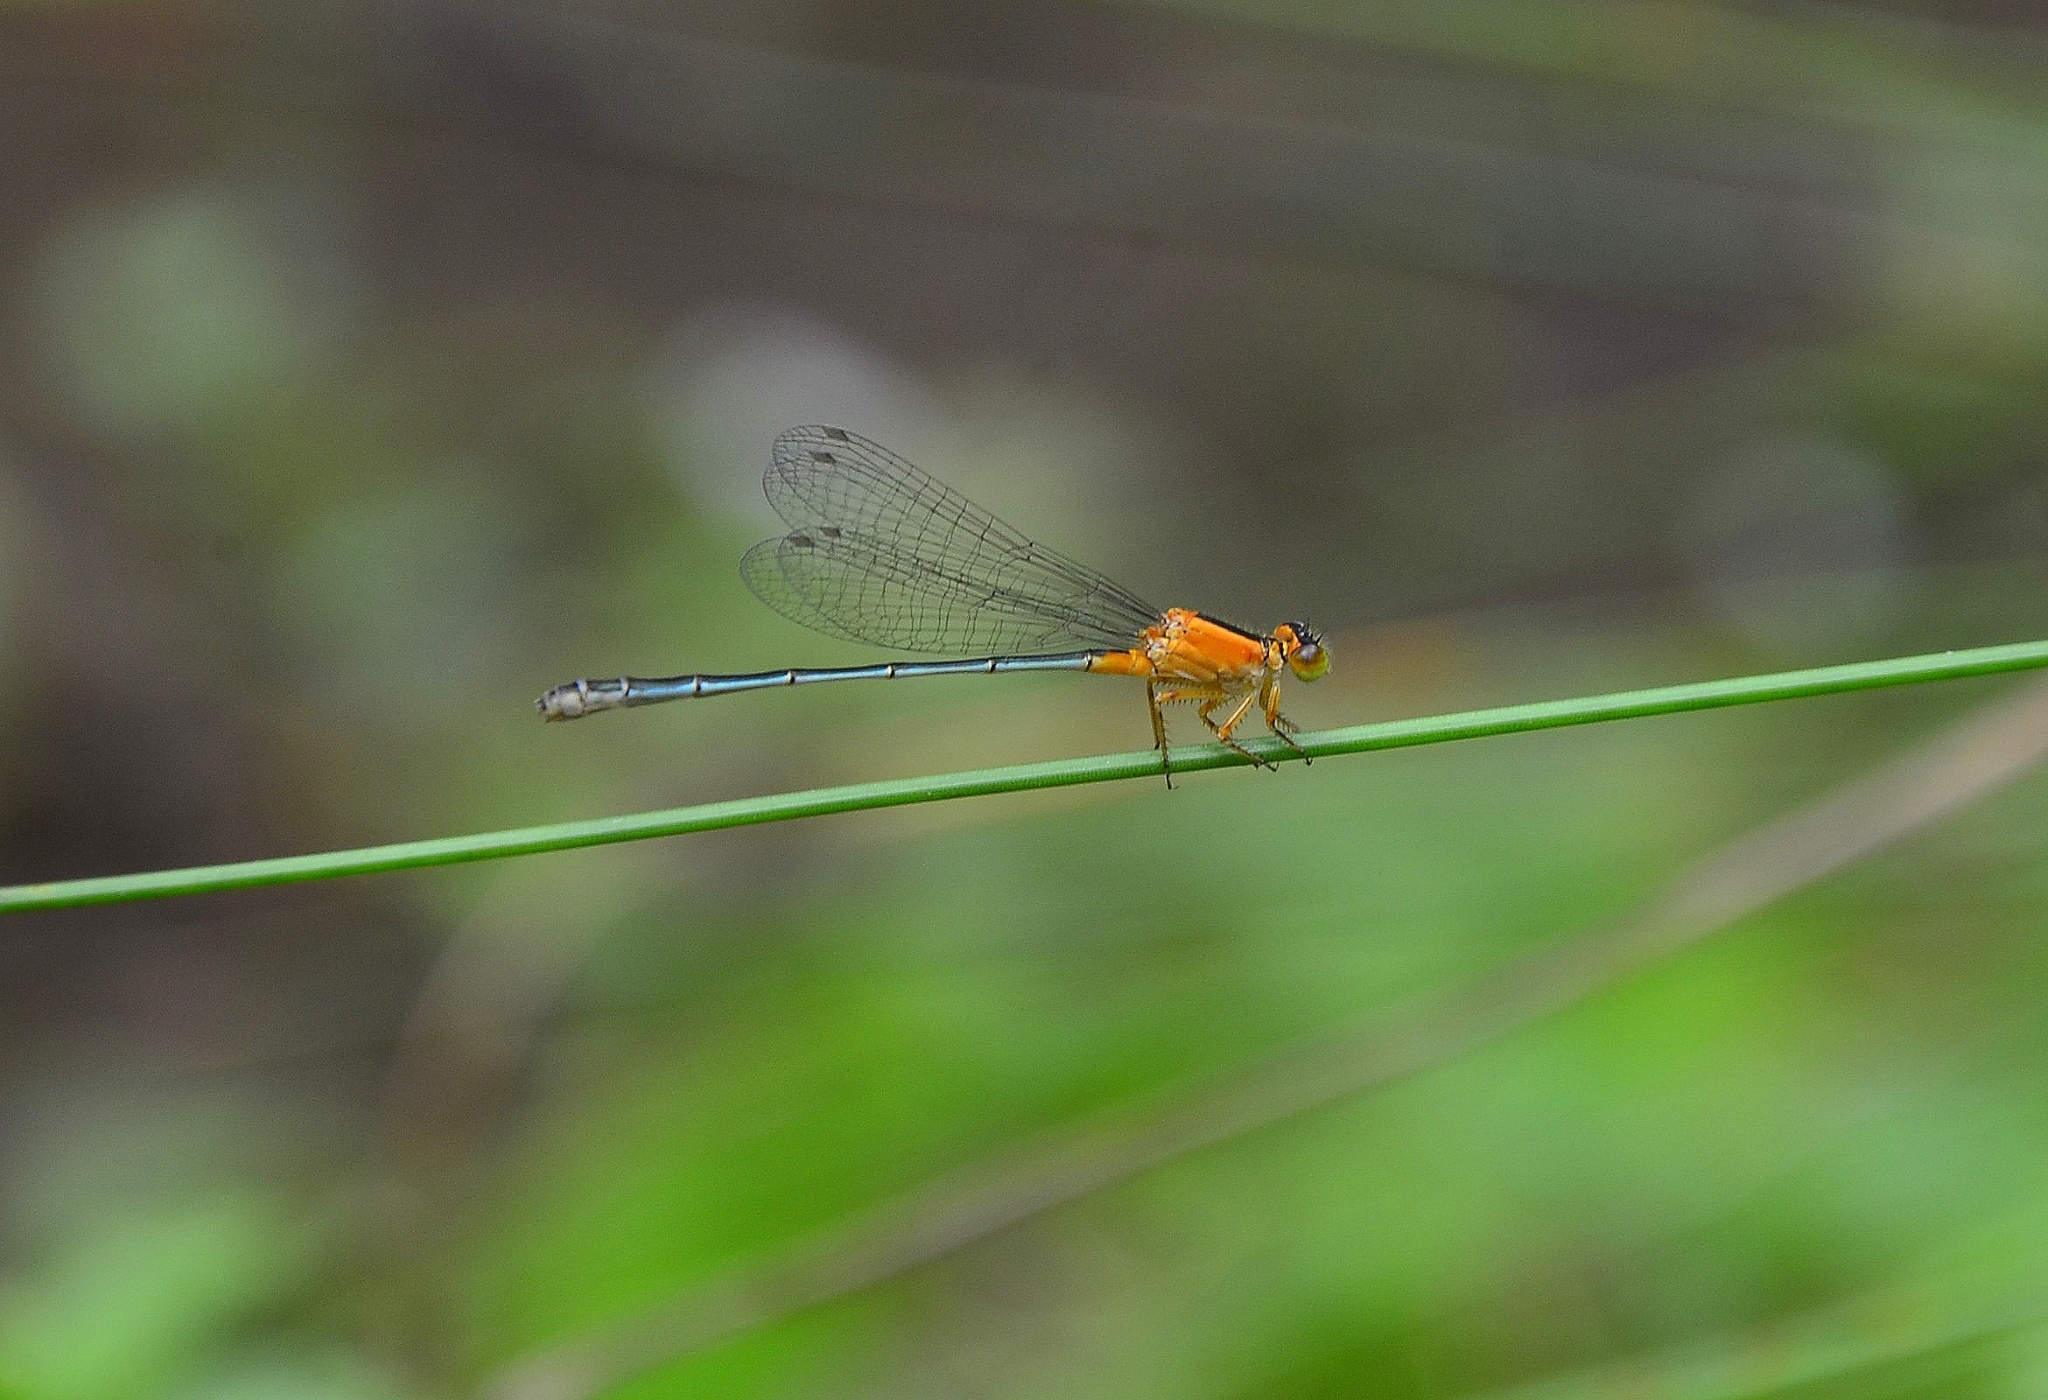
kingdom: Animalia
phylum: Arthropoda
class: Insecta
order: Odonata
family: Coenagrionidae
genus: Ischnura
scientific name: Ischnura senegalensis
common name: Tropical bluetail
